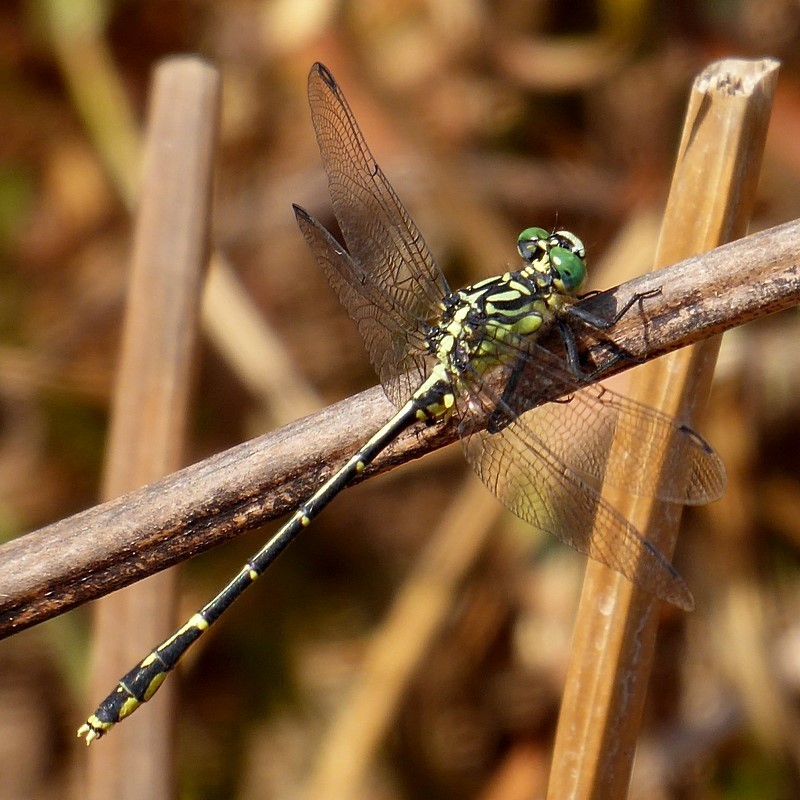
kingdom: Animalia
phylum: Arthropoda
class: Insecta
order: Odonata
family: Gomphidae
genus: Austrogomphus
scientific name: Austrogomphus ochraceus
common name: Jade hunter
